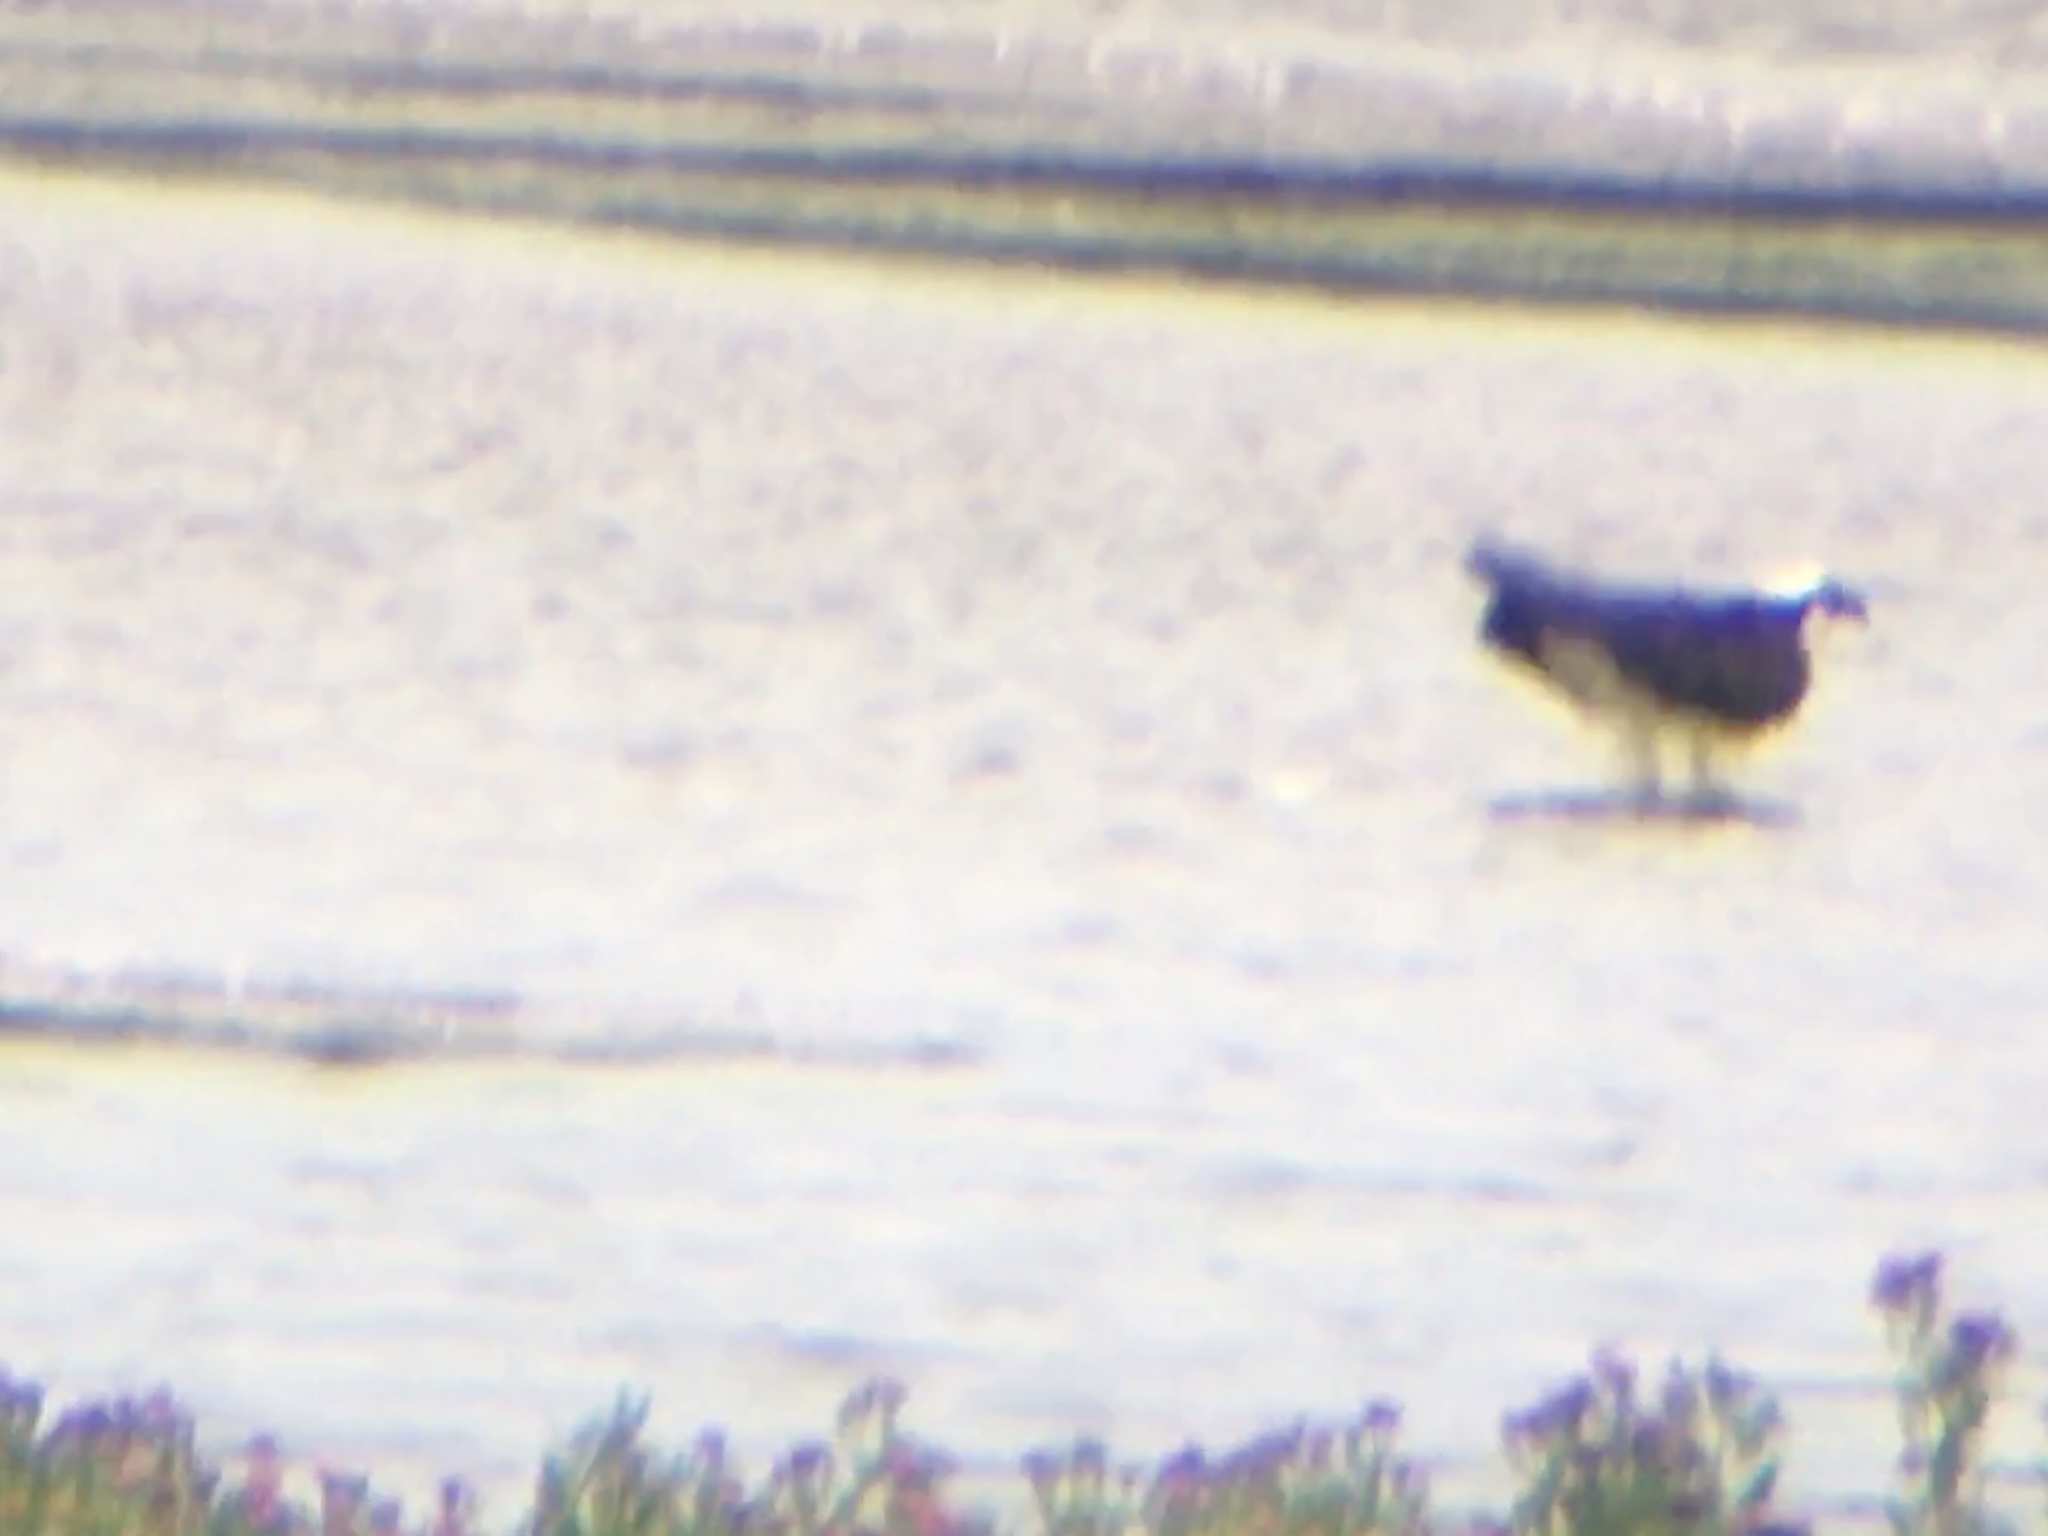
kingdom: Animalia
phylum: Chordata
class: Aves
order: Accipitriformes
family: Pandionidae
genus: Pandion
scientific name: Pandion haliaetus
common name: Osprey
